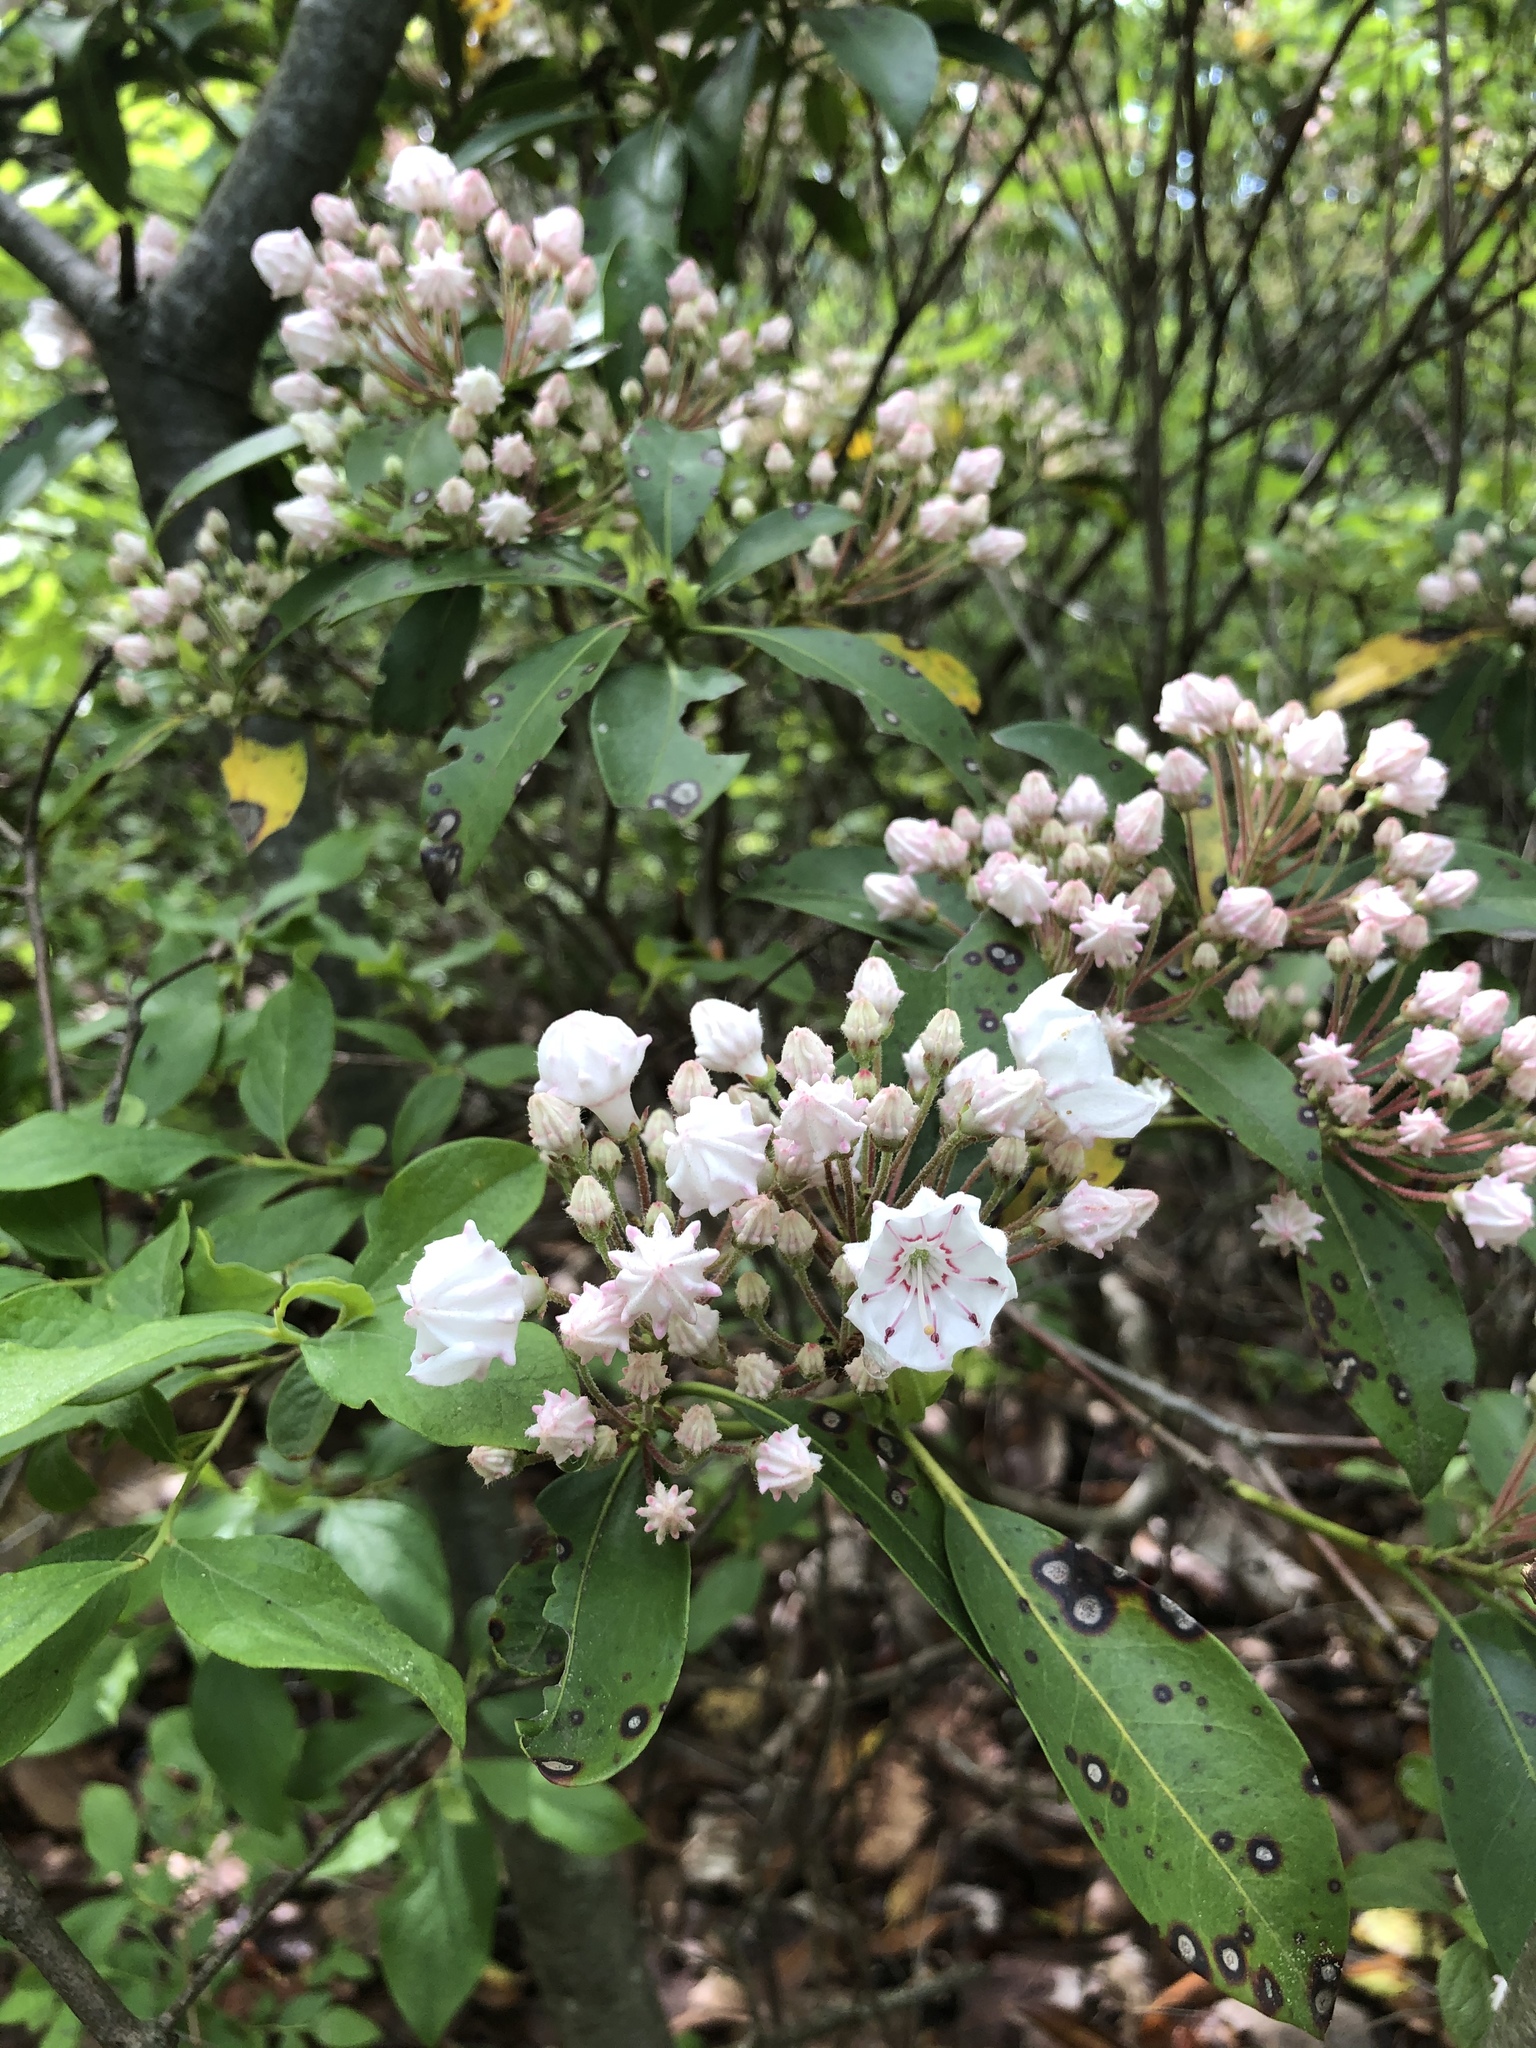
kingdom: Plantae
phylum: Tracheophyta
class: Magnoliopsida
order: Ericales
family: Ericaceae
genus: Kalmia
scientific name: Kalmia latifolia
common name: Mountain-laurel
